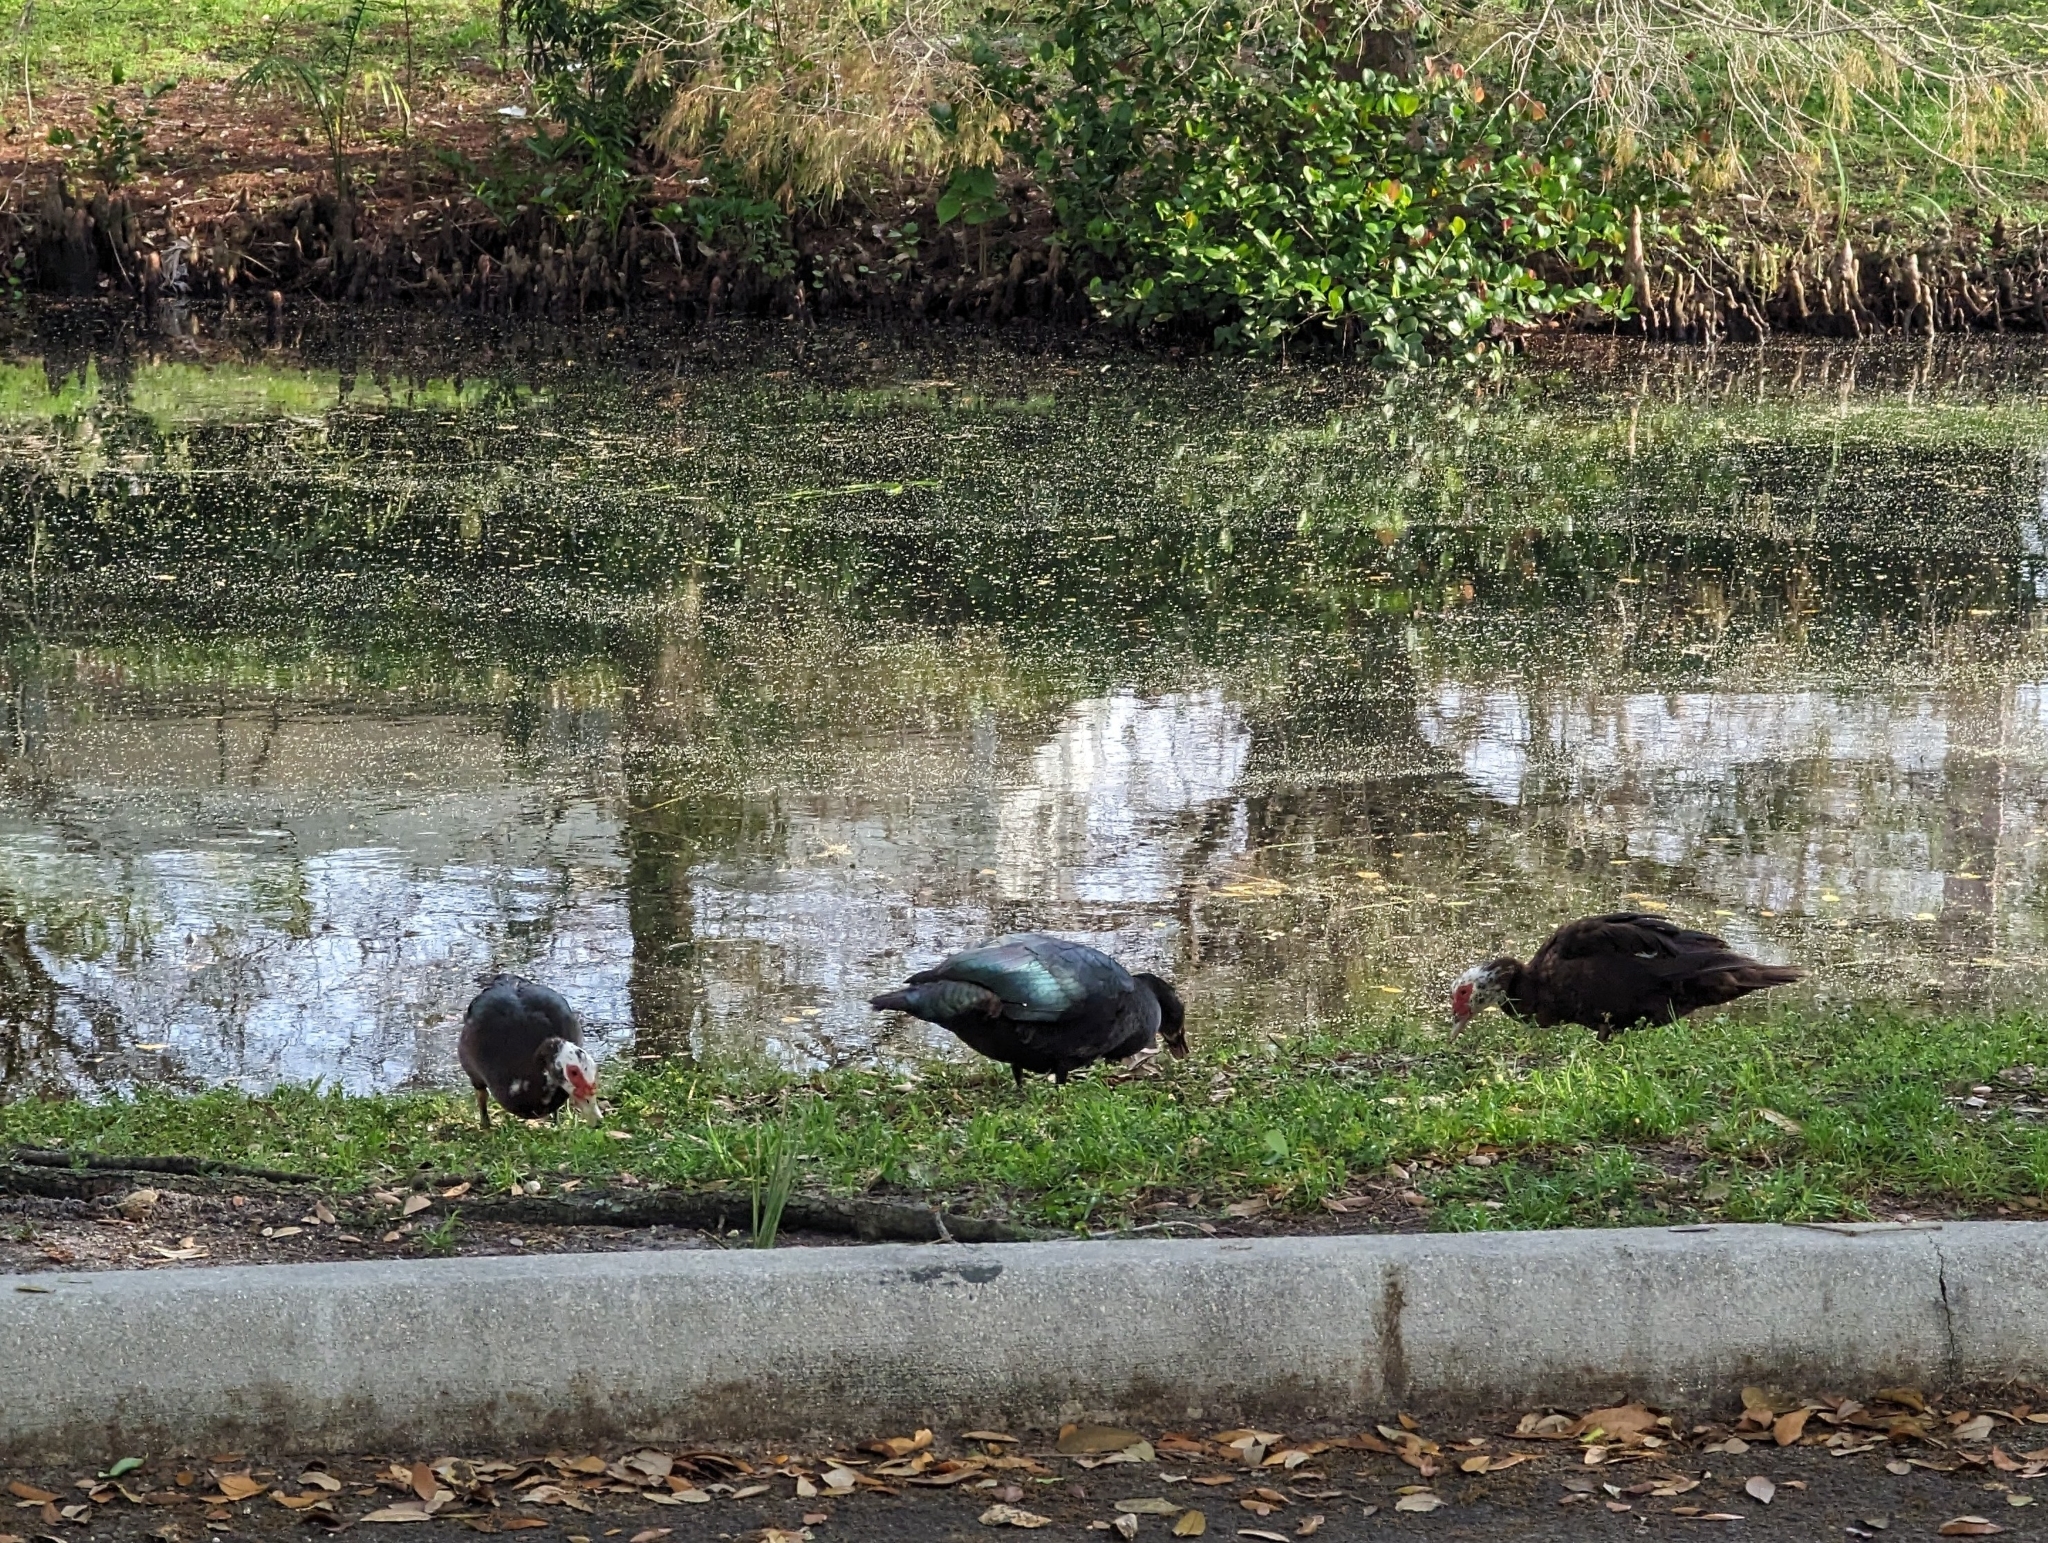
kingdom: Animalia
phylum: Chordata
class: Aves
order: Anseriformes
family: Anatidae
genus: Cairina
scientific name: Cairina moschata
